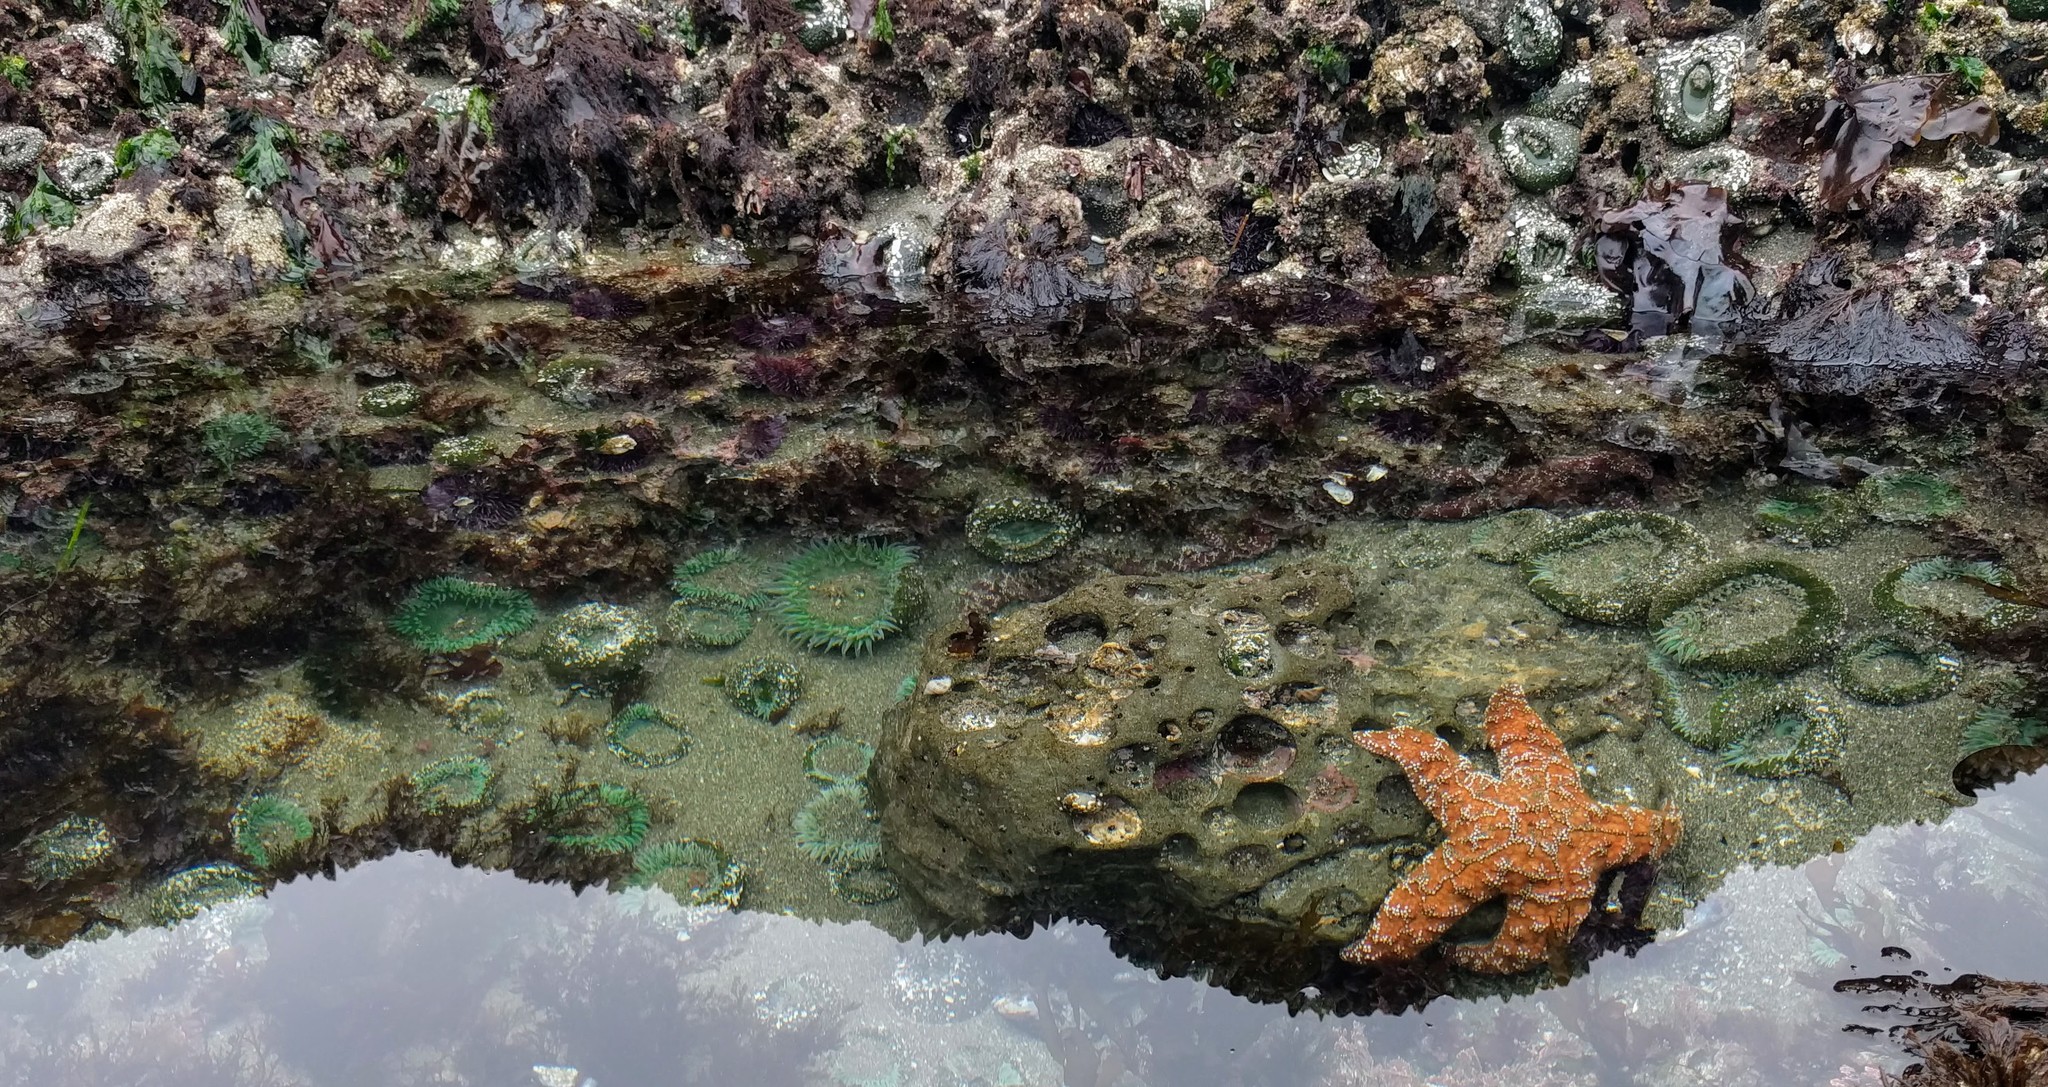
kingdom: Animalia
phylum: Cnidaria
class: Anthozoa
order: Actiniaria
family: Actiniidae
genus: Anthopleura
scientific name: Anthopleura xanthogrammica
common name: Giant green anemone
